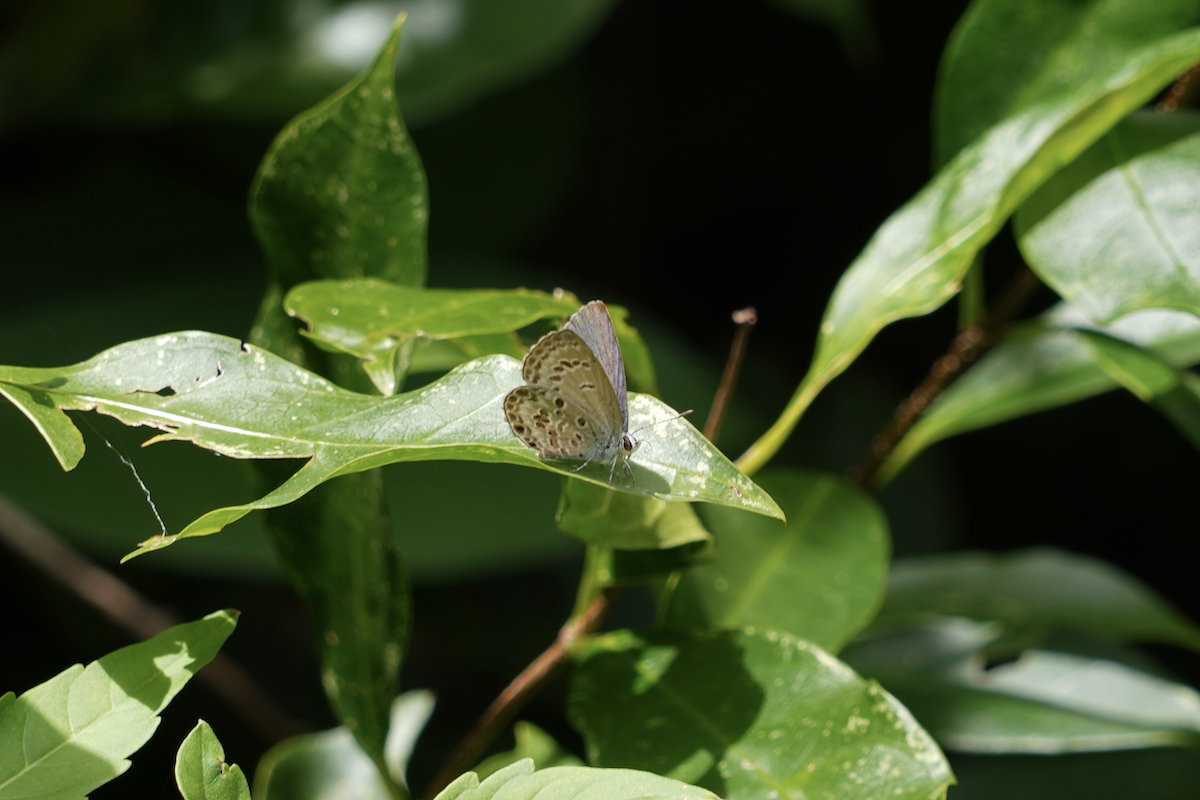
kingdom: Animalia
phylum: Arthropoda
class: Insecta
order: Lepidoptera
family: Lycaenidae
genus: Chilades
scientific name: Chilades laius
